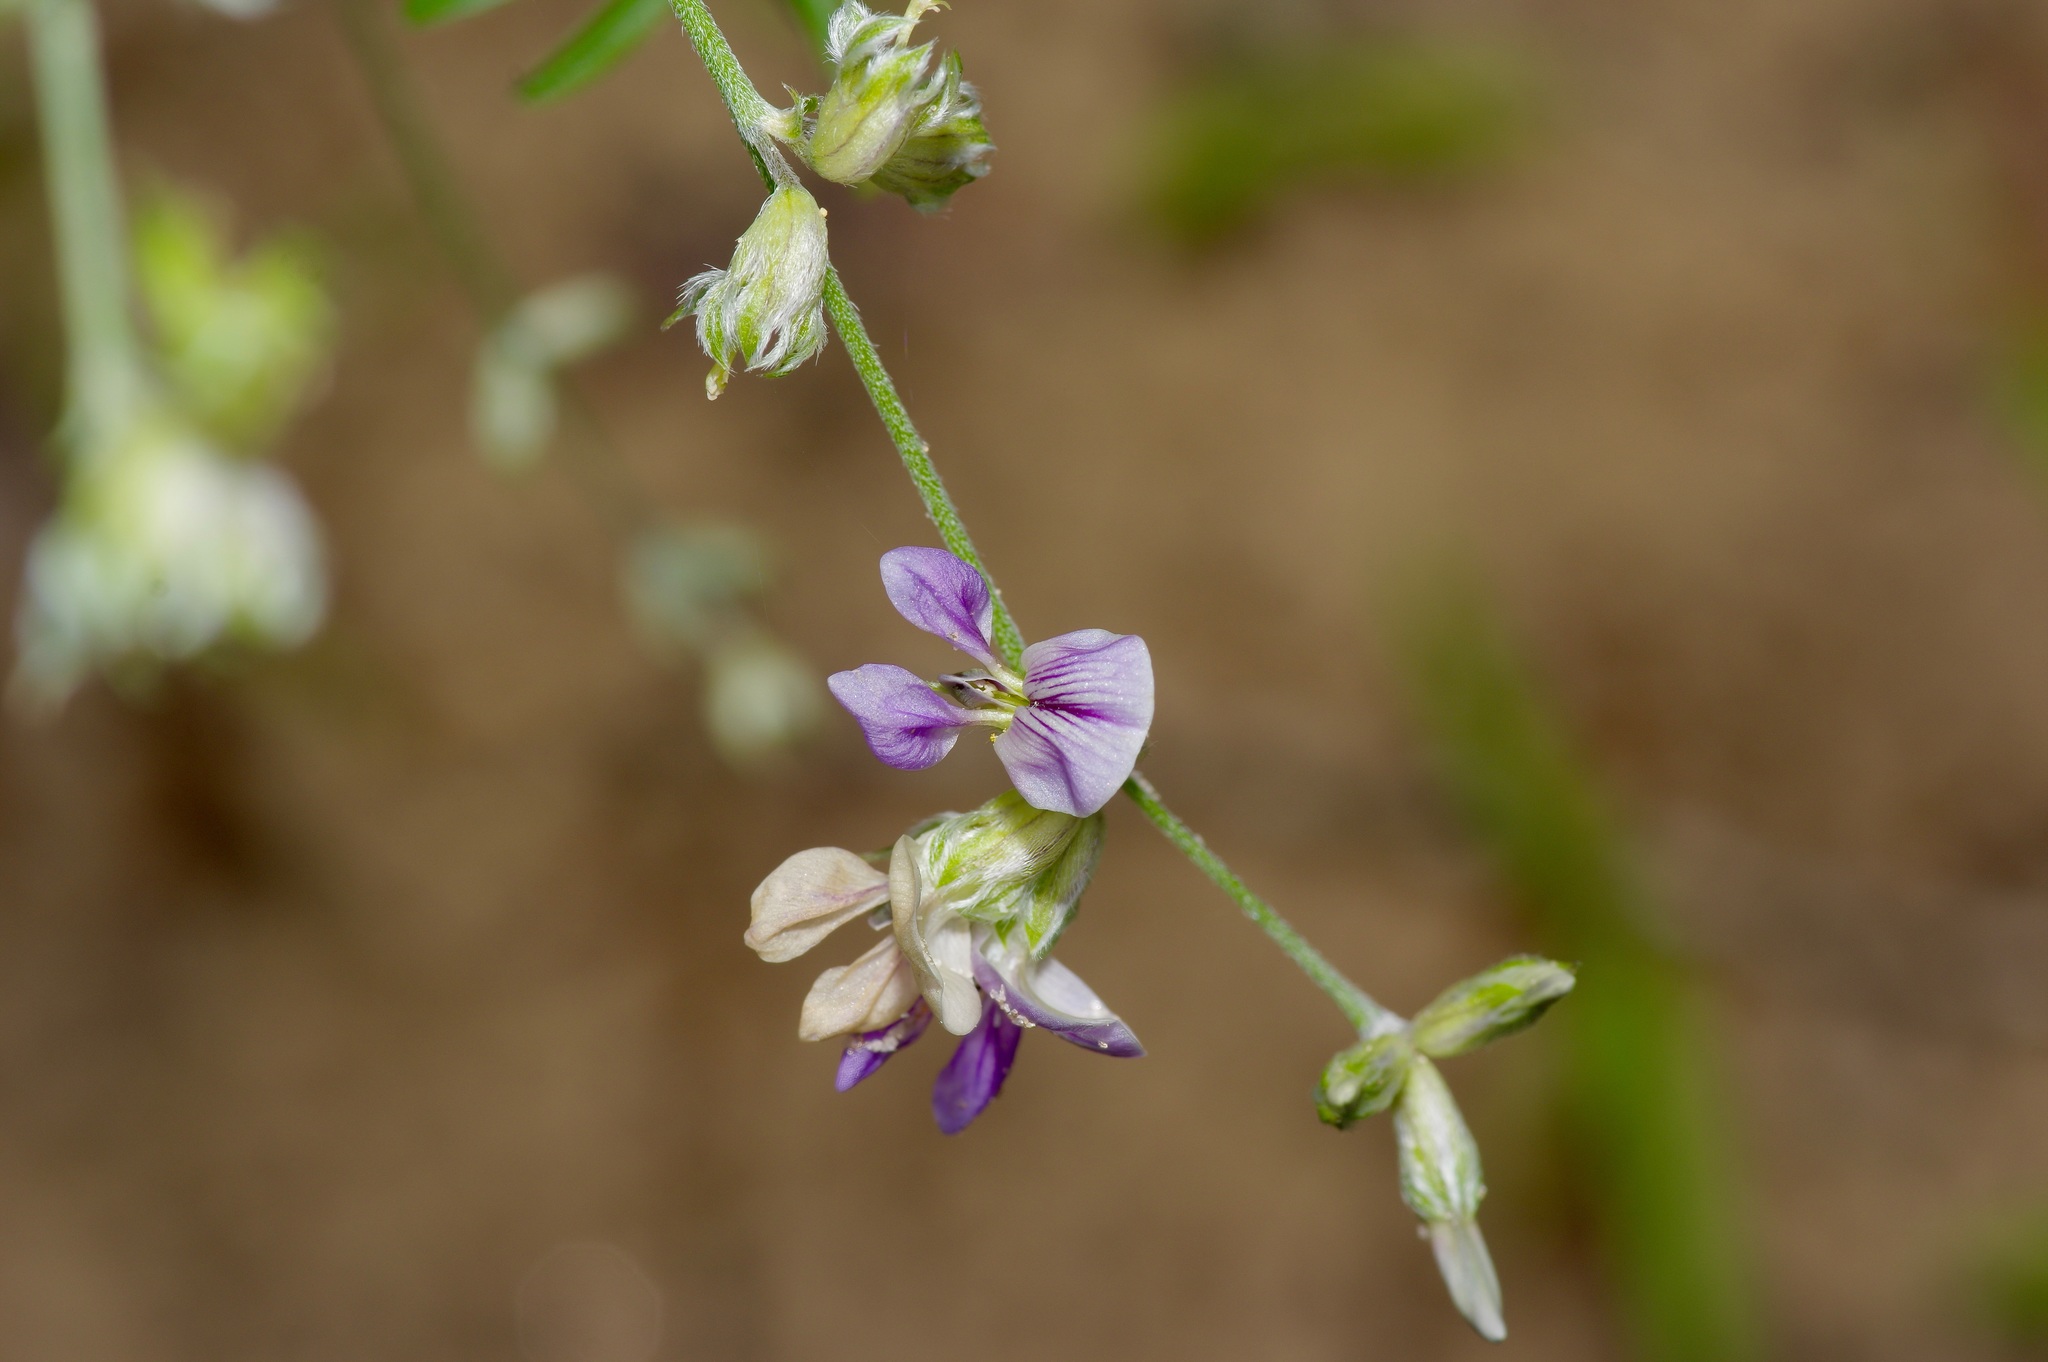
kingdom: Plantae
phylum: Tracheophyta
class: Magnoliopsida
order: Fabales
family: Fabaceae
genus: Pediomelum
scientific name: Pediomelum digitatum
